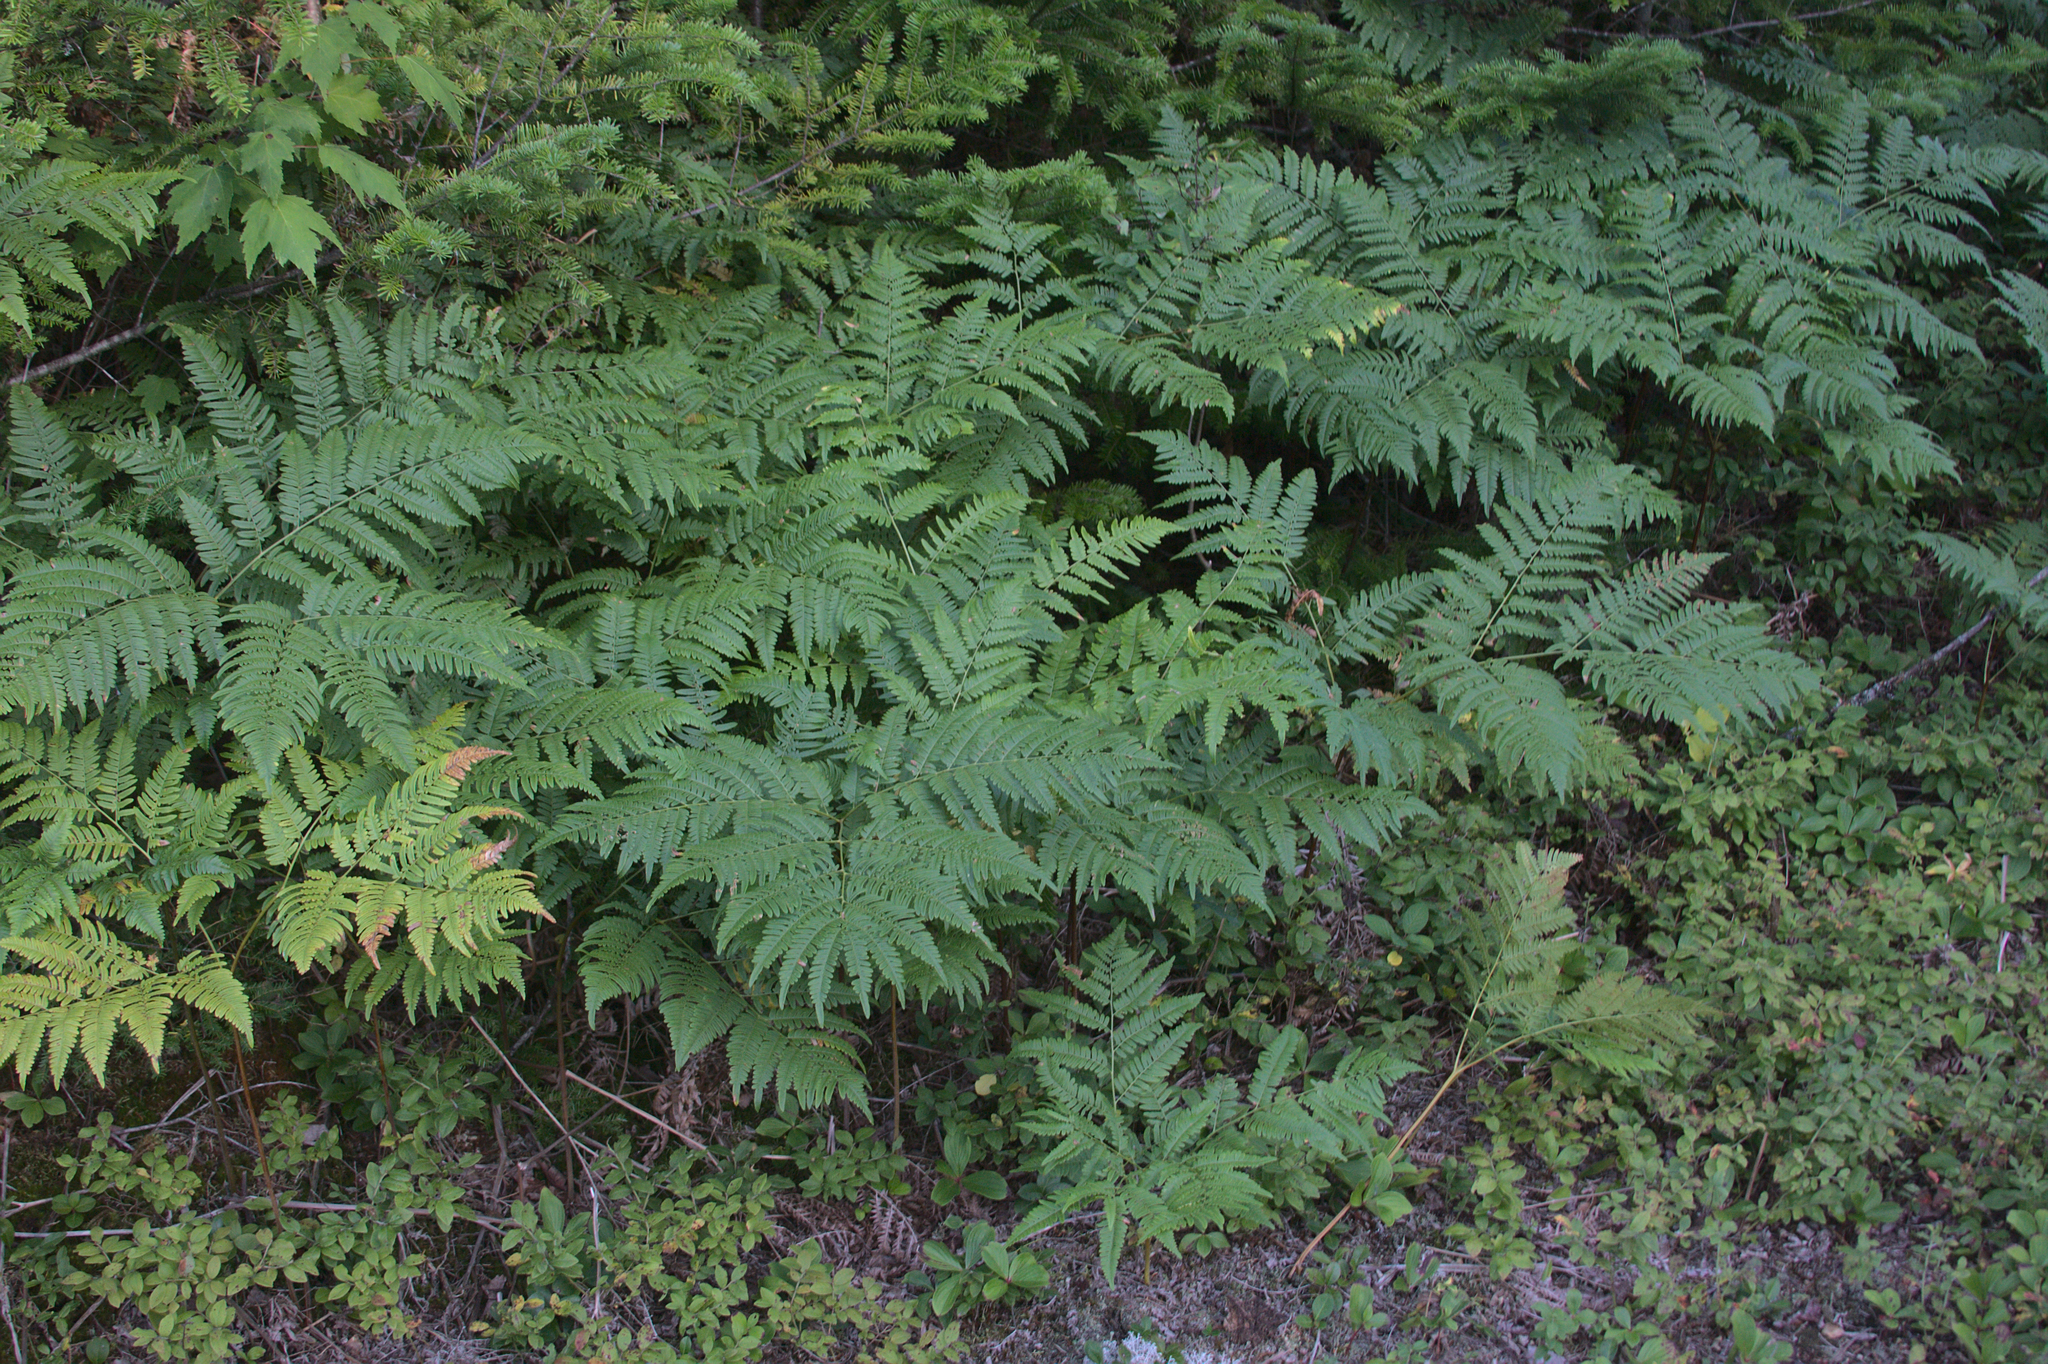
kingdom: Plantae
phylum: Tracheophyta
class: Polypodiopsida
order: Polypodiales
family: Dennstaedtiaceae
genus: Pteridium
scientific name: Pteridium aquilinum
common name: Bracken
